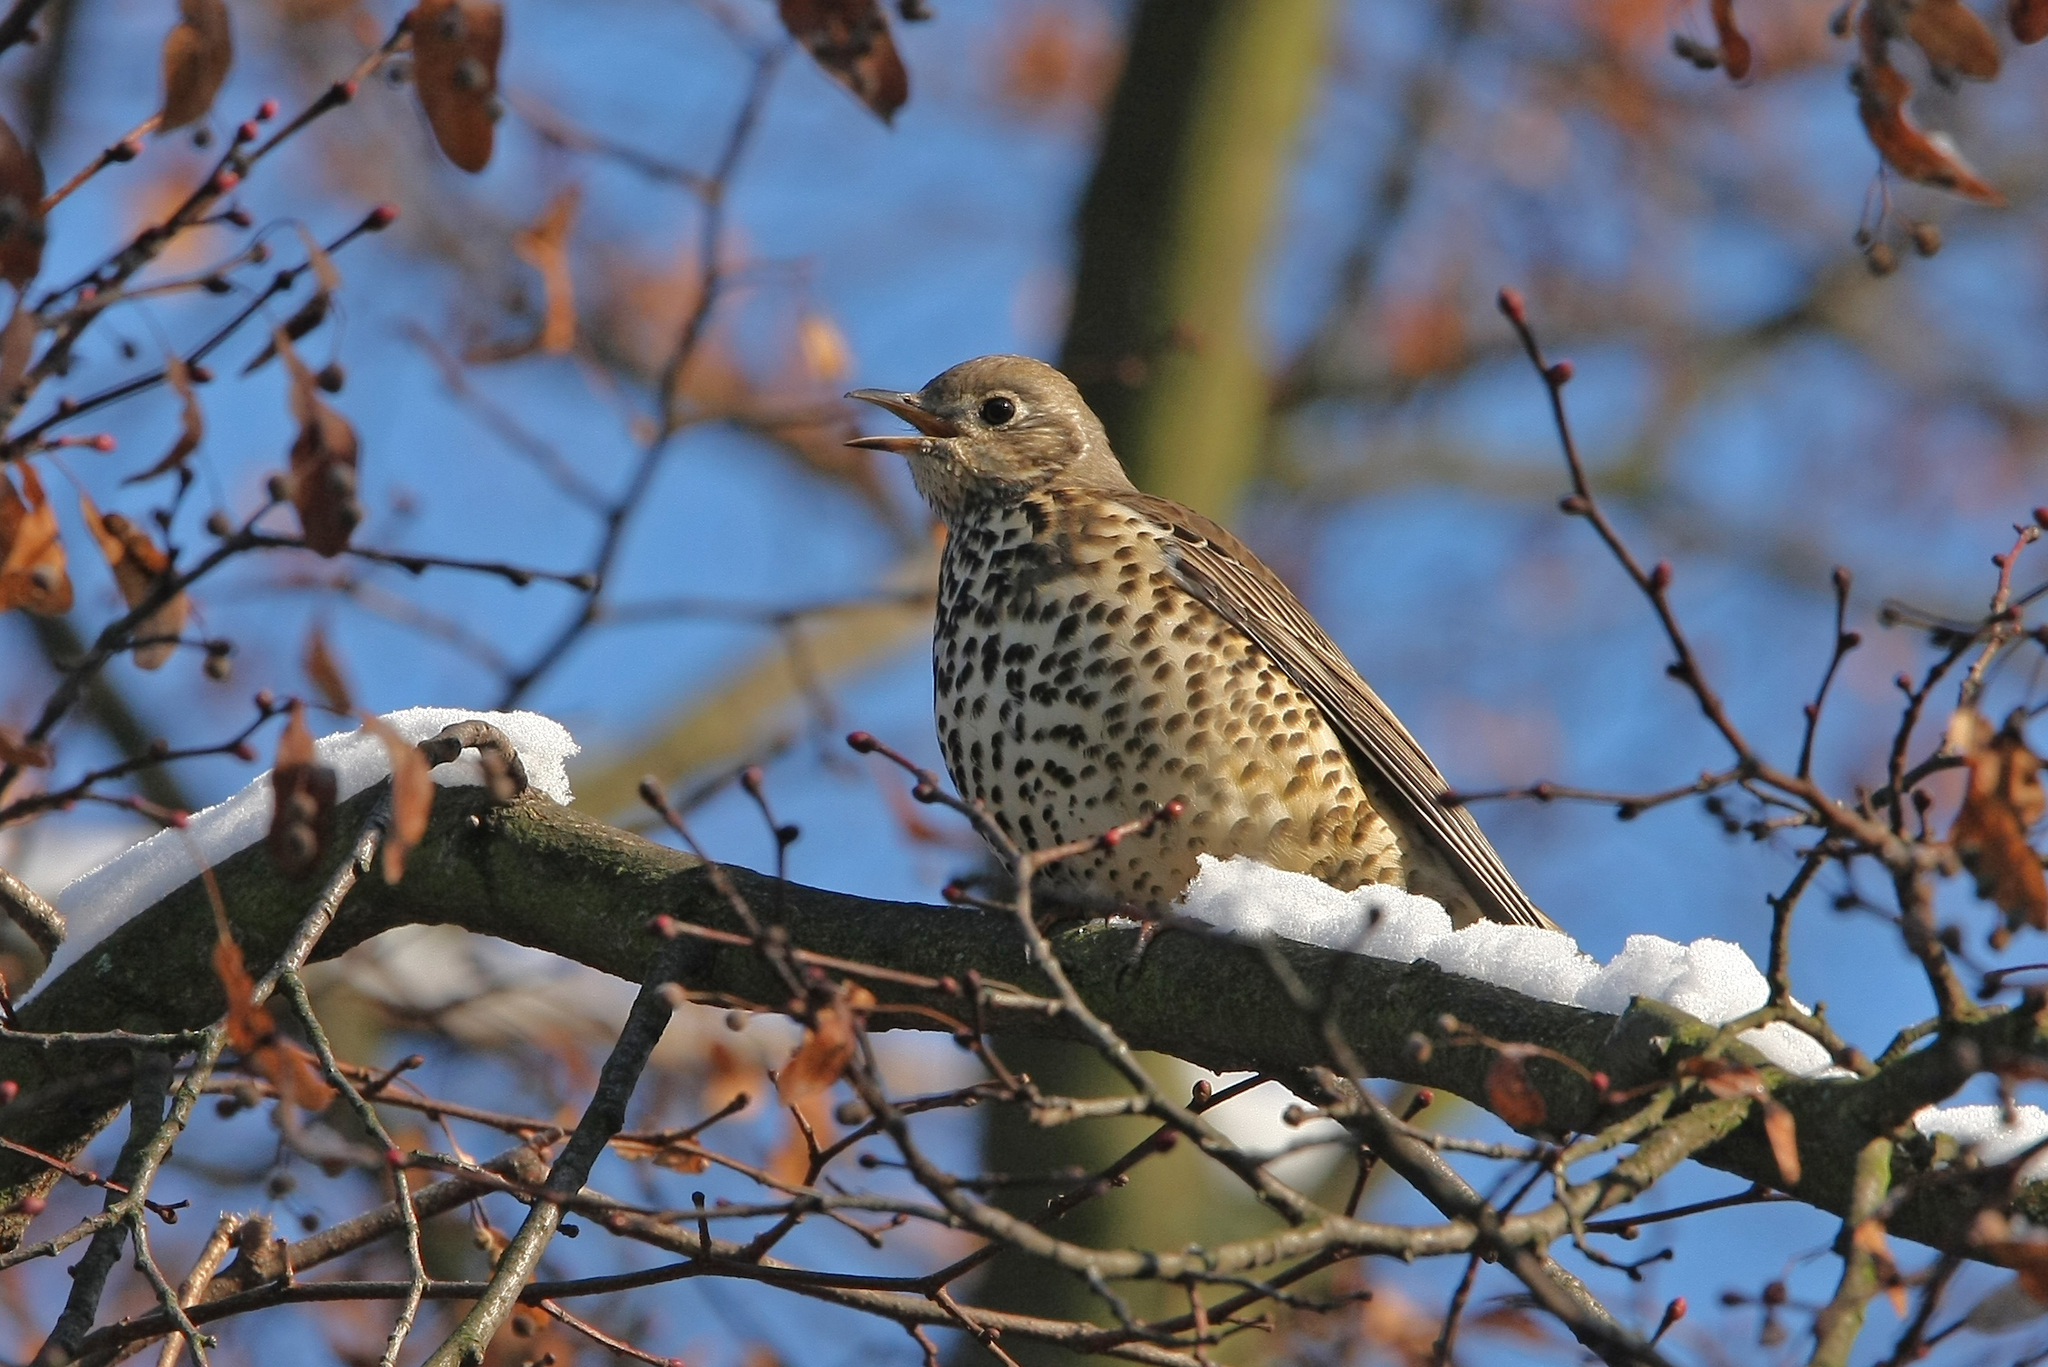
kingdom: Animalia
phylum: Chordata
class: Aves
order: Passeriformes
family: Turdidae
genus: Turdus
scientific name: Turdus viscivorus
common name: Mistle thrush
